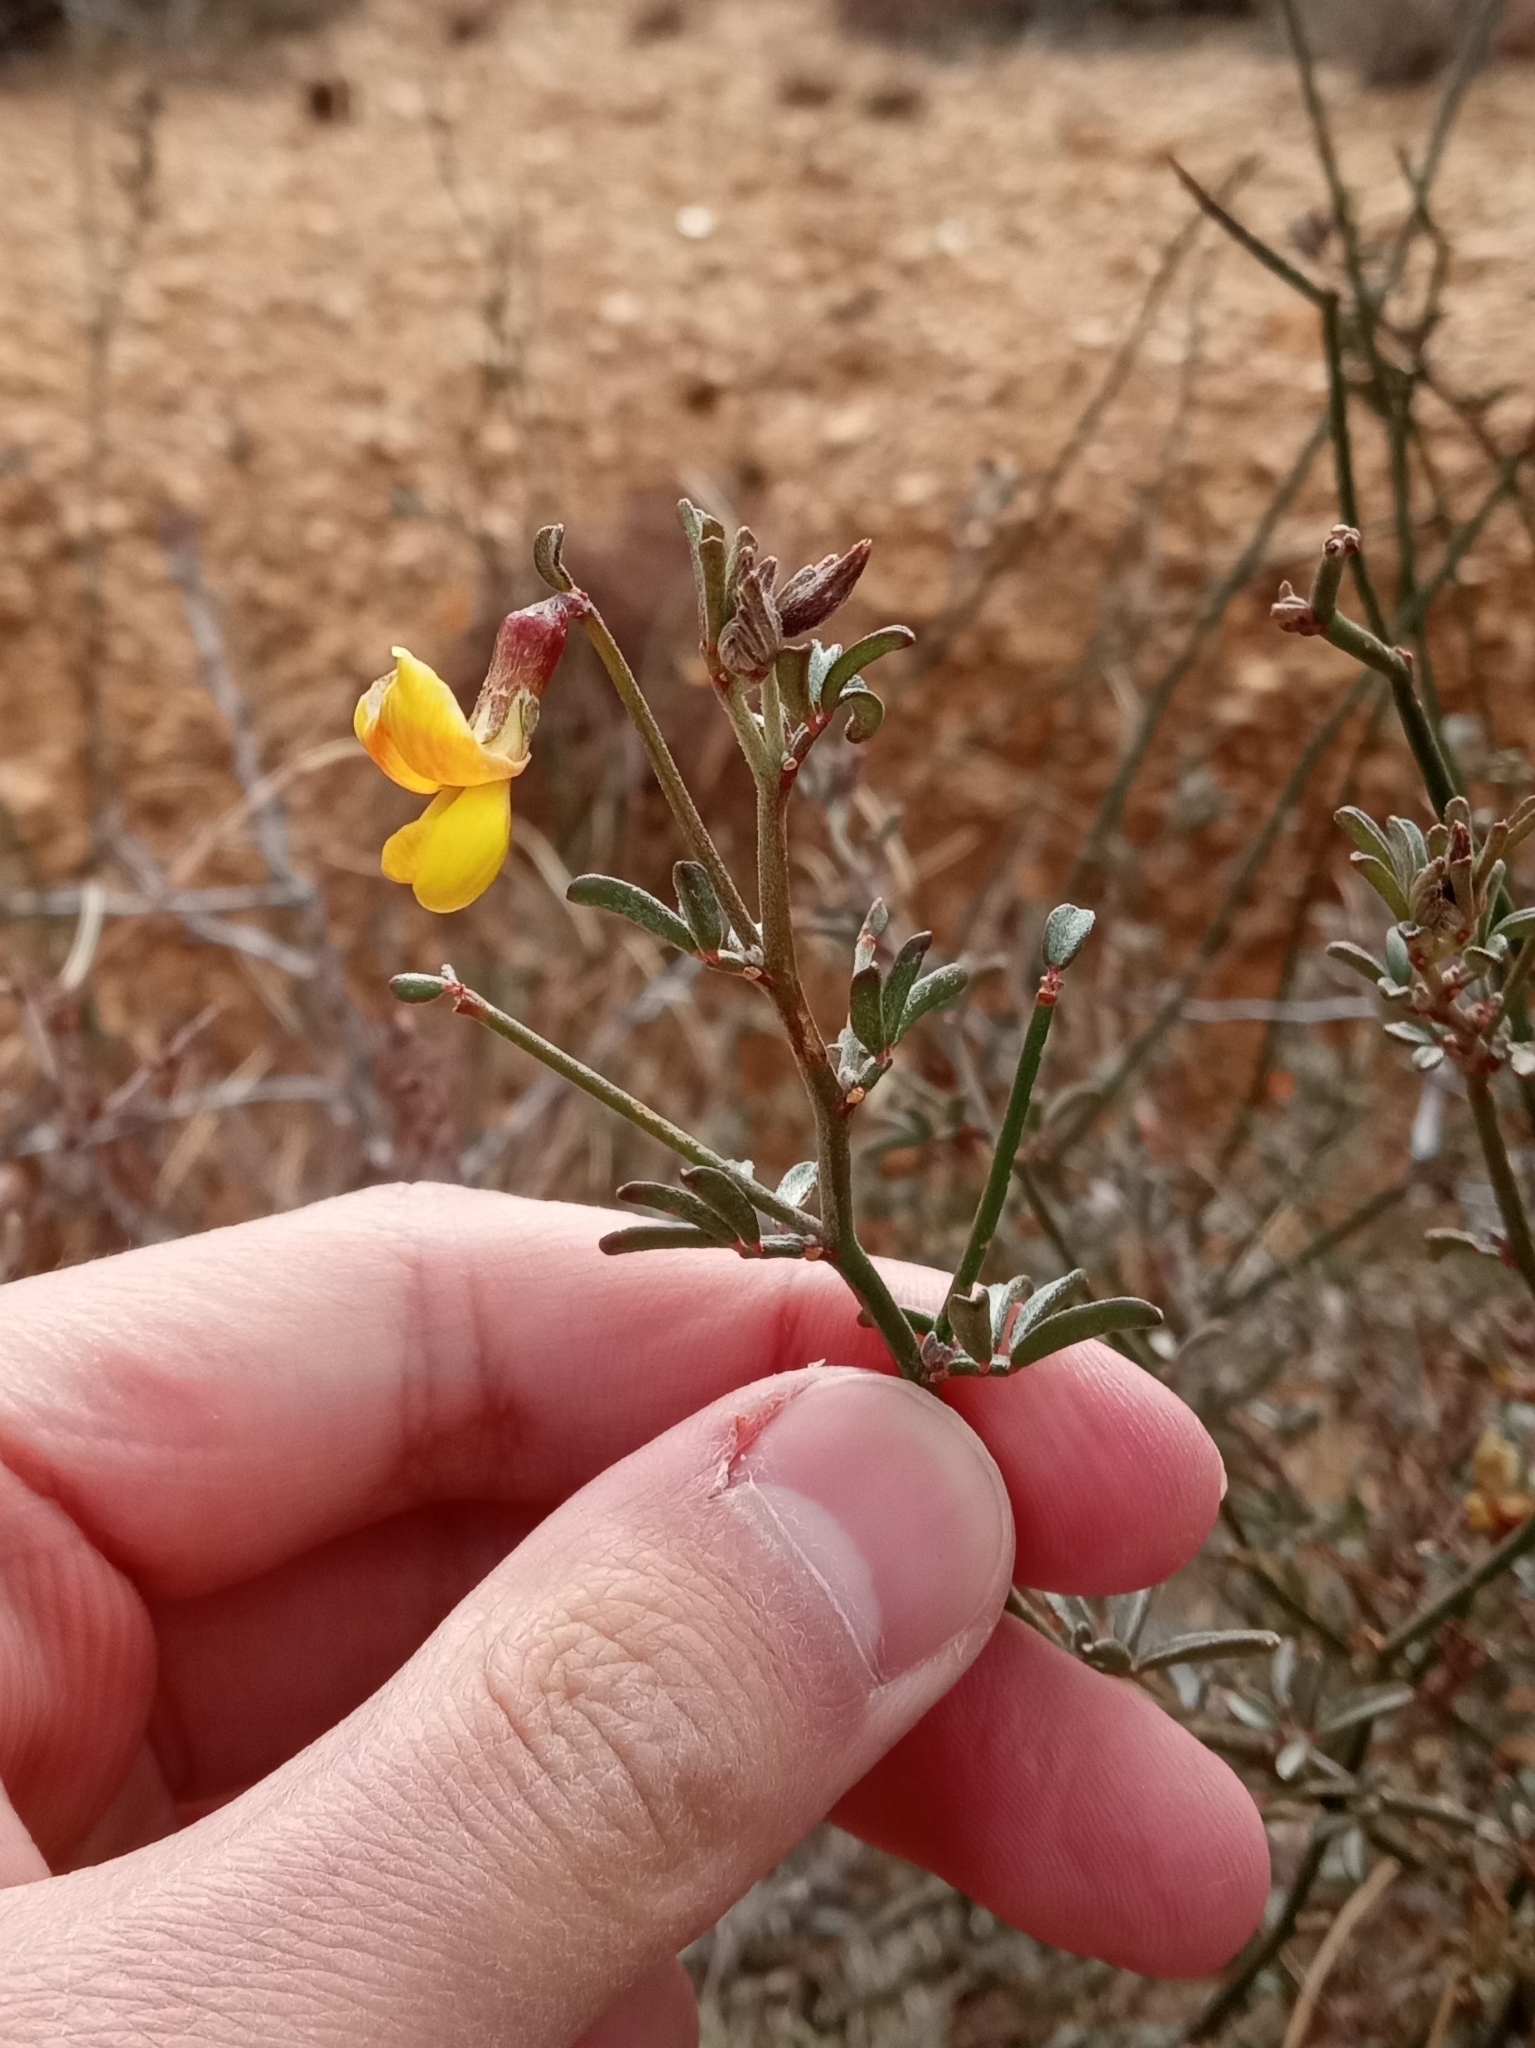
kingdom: Plantae
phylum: Tracheophyta
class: Magnoliopsida
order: Fabales
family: Fabaceae
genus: Acmispon
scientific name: Acmispon rigidus
